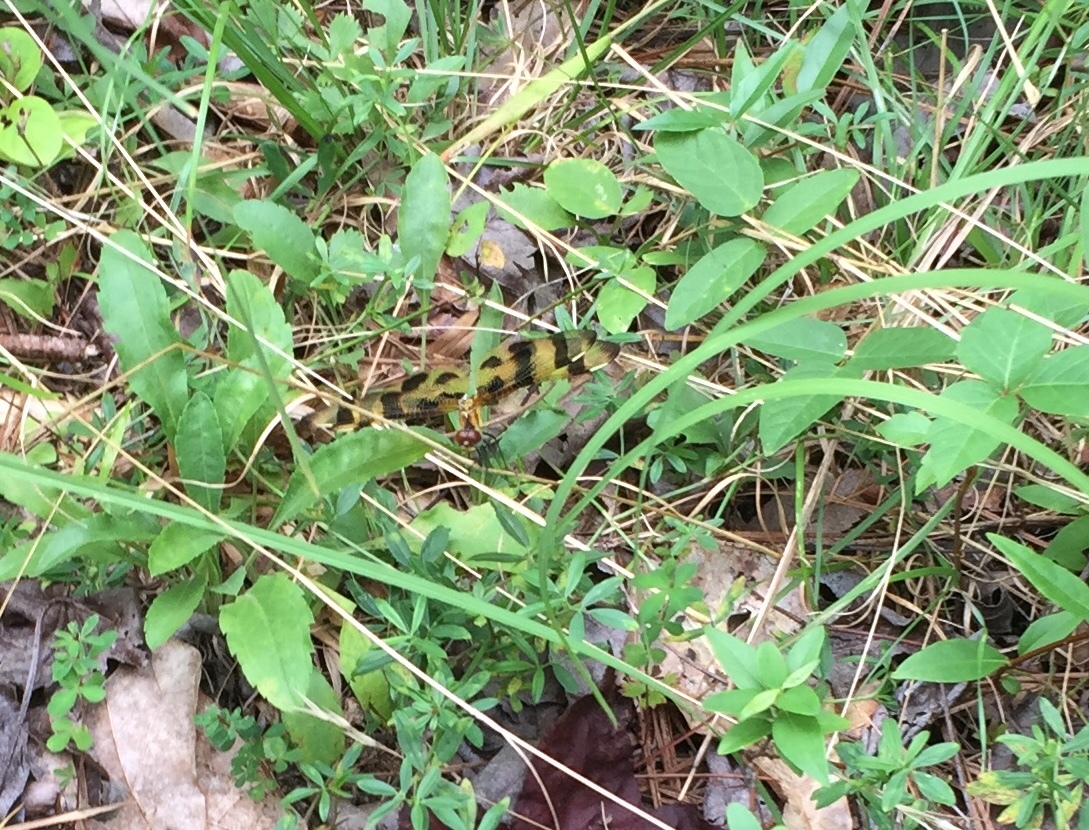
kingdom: Animalia
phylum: Arthropoda
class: Insecta
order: Odonata
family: Libellulidae
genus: Celithemis
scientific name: Celithemis eponina
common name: Halloween pennant
